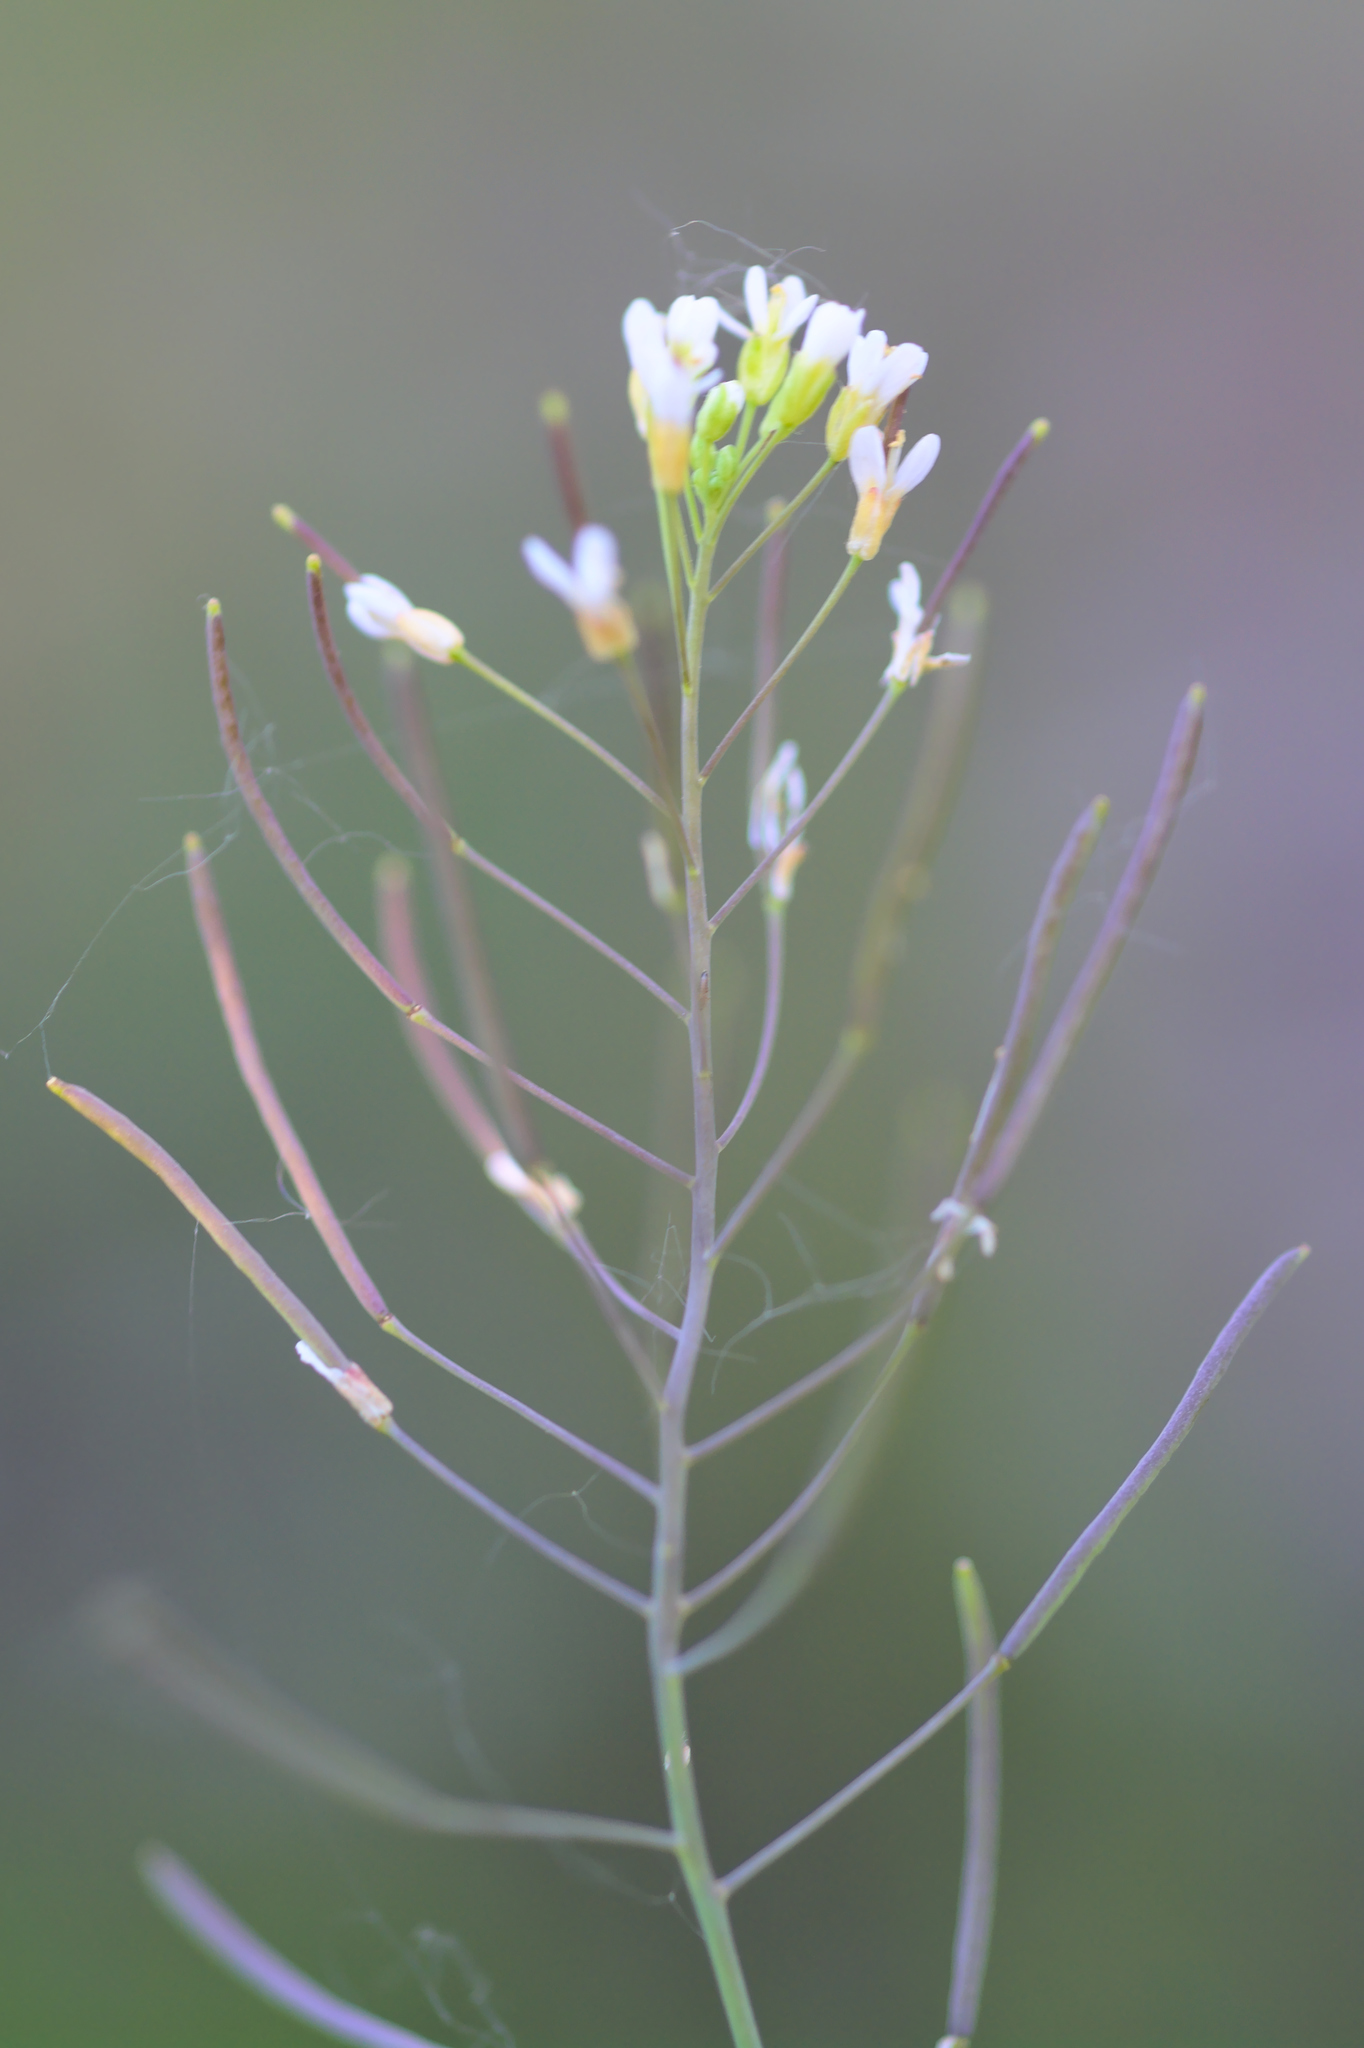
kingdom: Plantae
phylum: Tracheophyta
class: Magnoliopsida
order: Brassicales
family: Brassicaceae
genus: Arabidopsis
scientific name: Arabidopsis thaliana
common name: Thale cress
